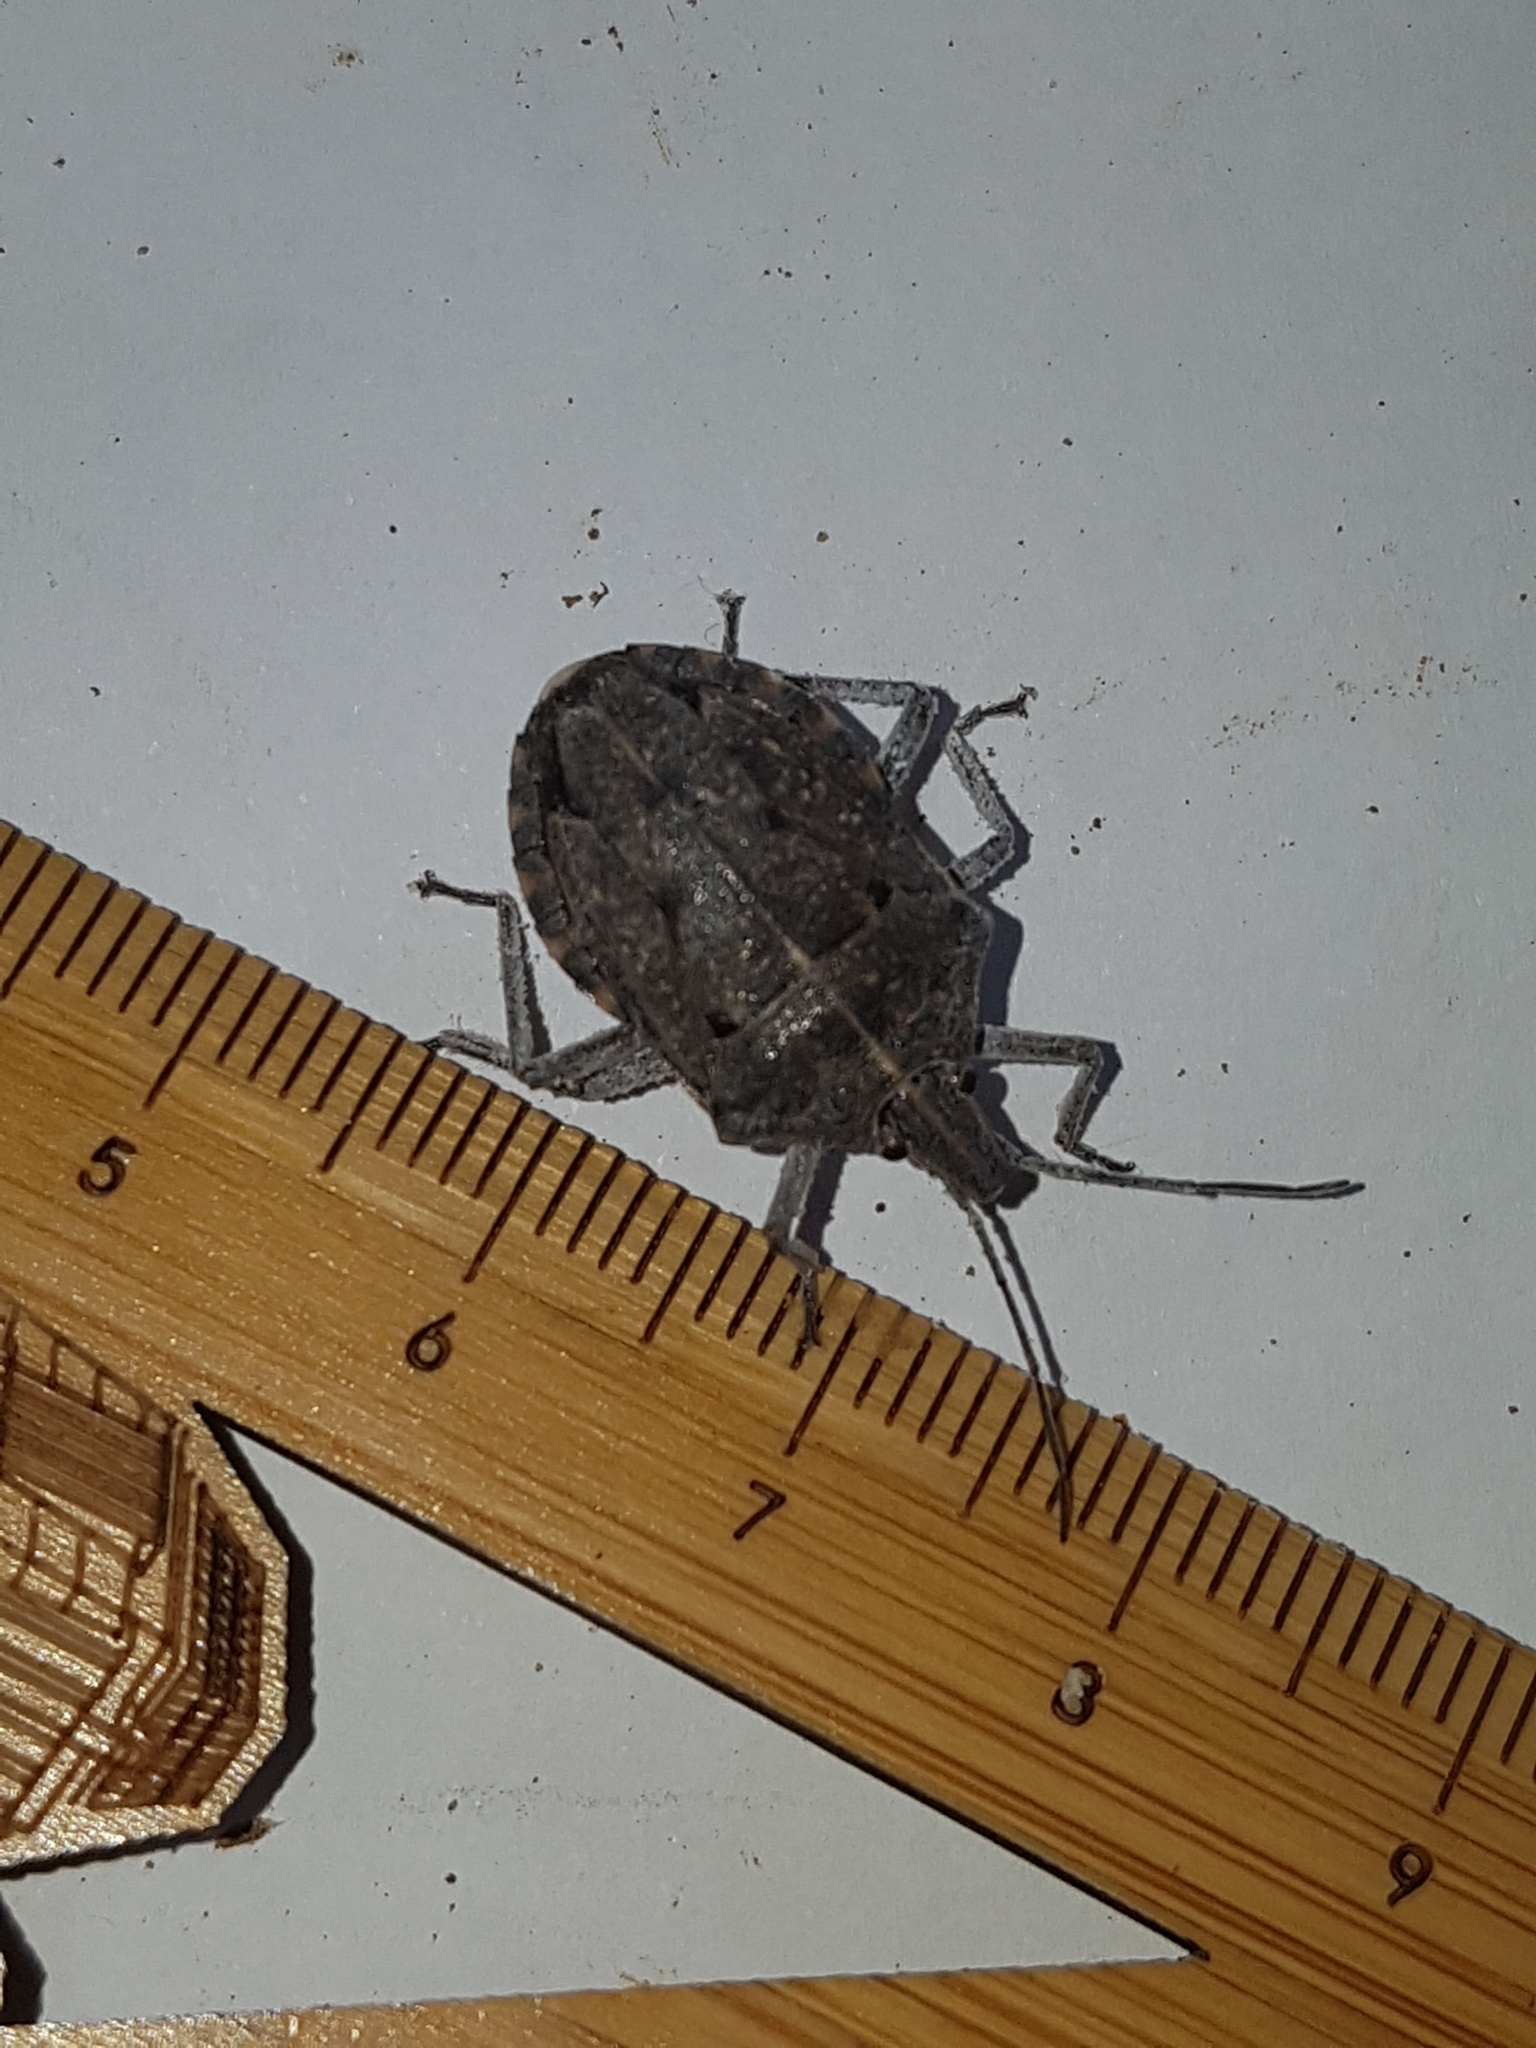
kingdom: Animalia
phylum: Arthropoda
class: Insecta
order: Hemiptera
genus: Peltasticus
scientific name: Peltasticus
